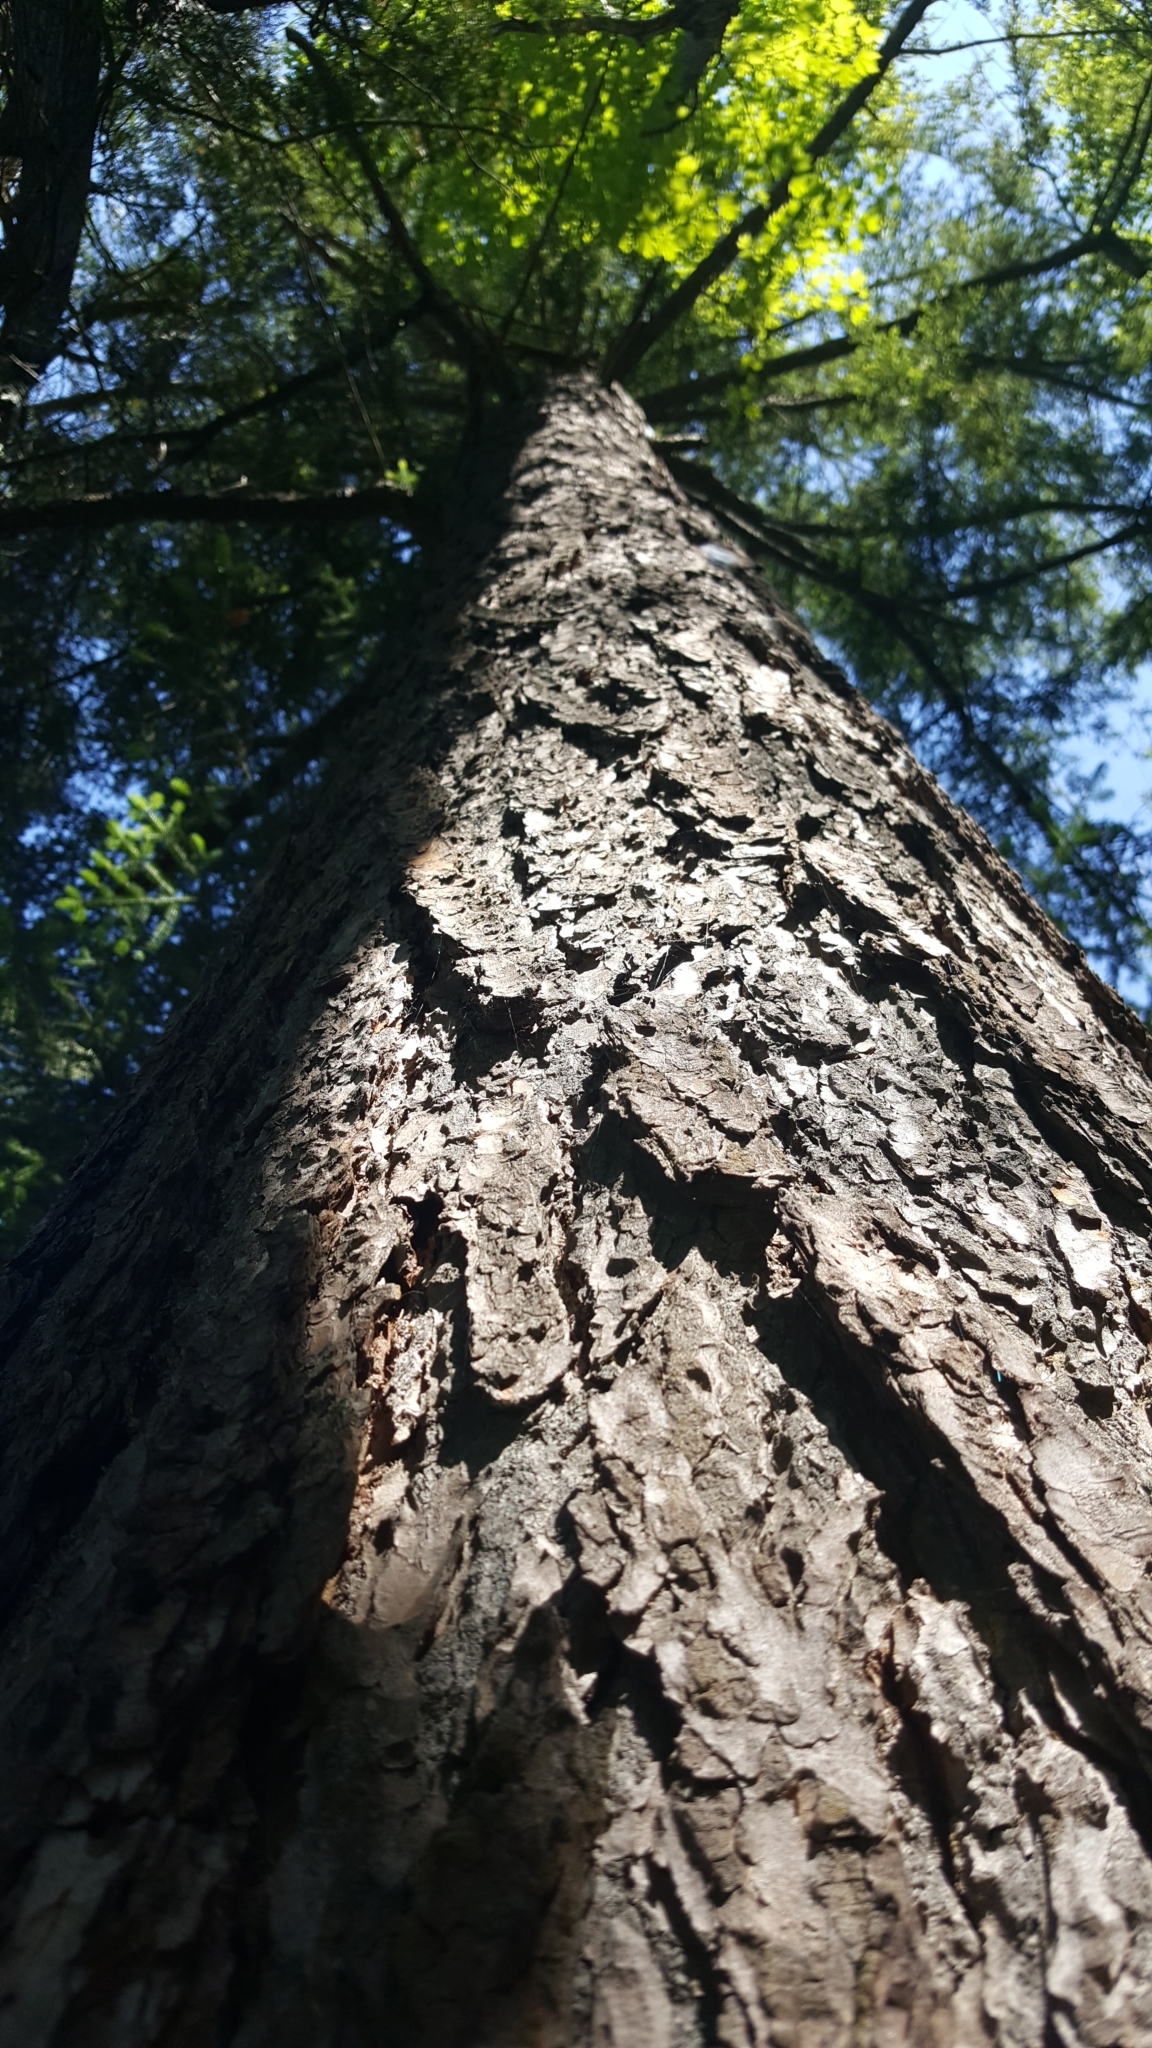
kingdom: Plantae
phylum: Tracheophyta
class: Pinopsida
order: Pinales
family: Pinaceae
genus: Tsuga
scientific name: Tsuga canadensis
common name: Eastern hemlock
